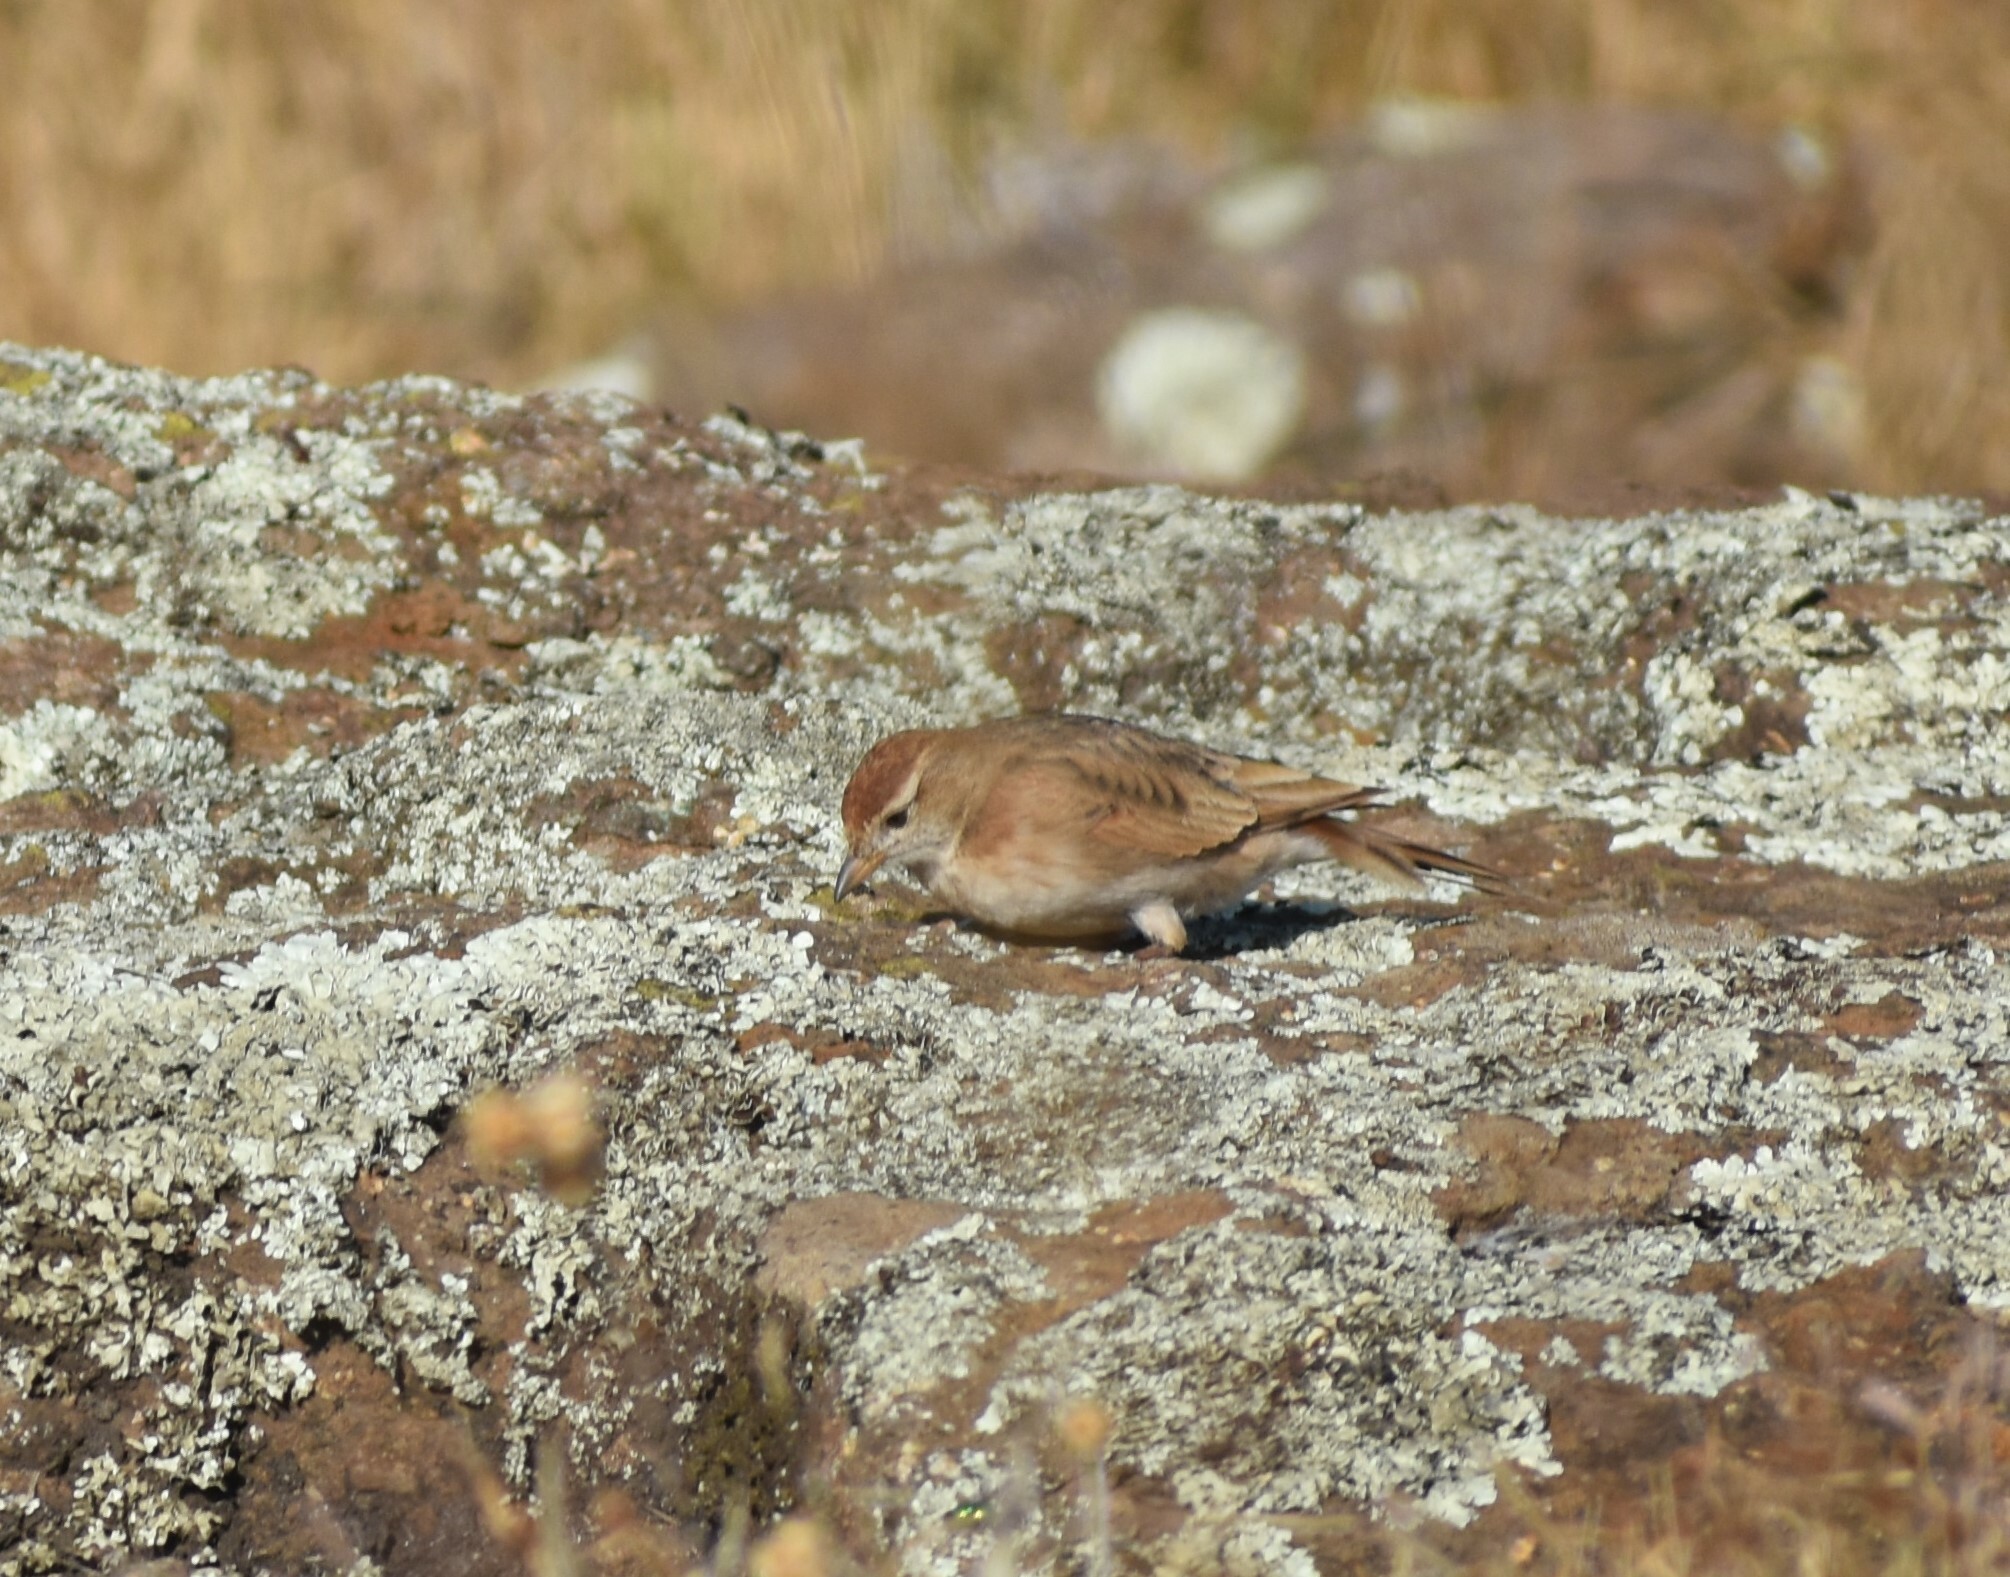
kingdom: Animalia
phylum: Chordata
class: Aves
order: Passeriformes
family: Alaudidae
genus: Calandrella
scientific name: Calandrella cinerea
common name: Red-capped lark
